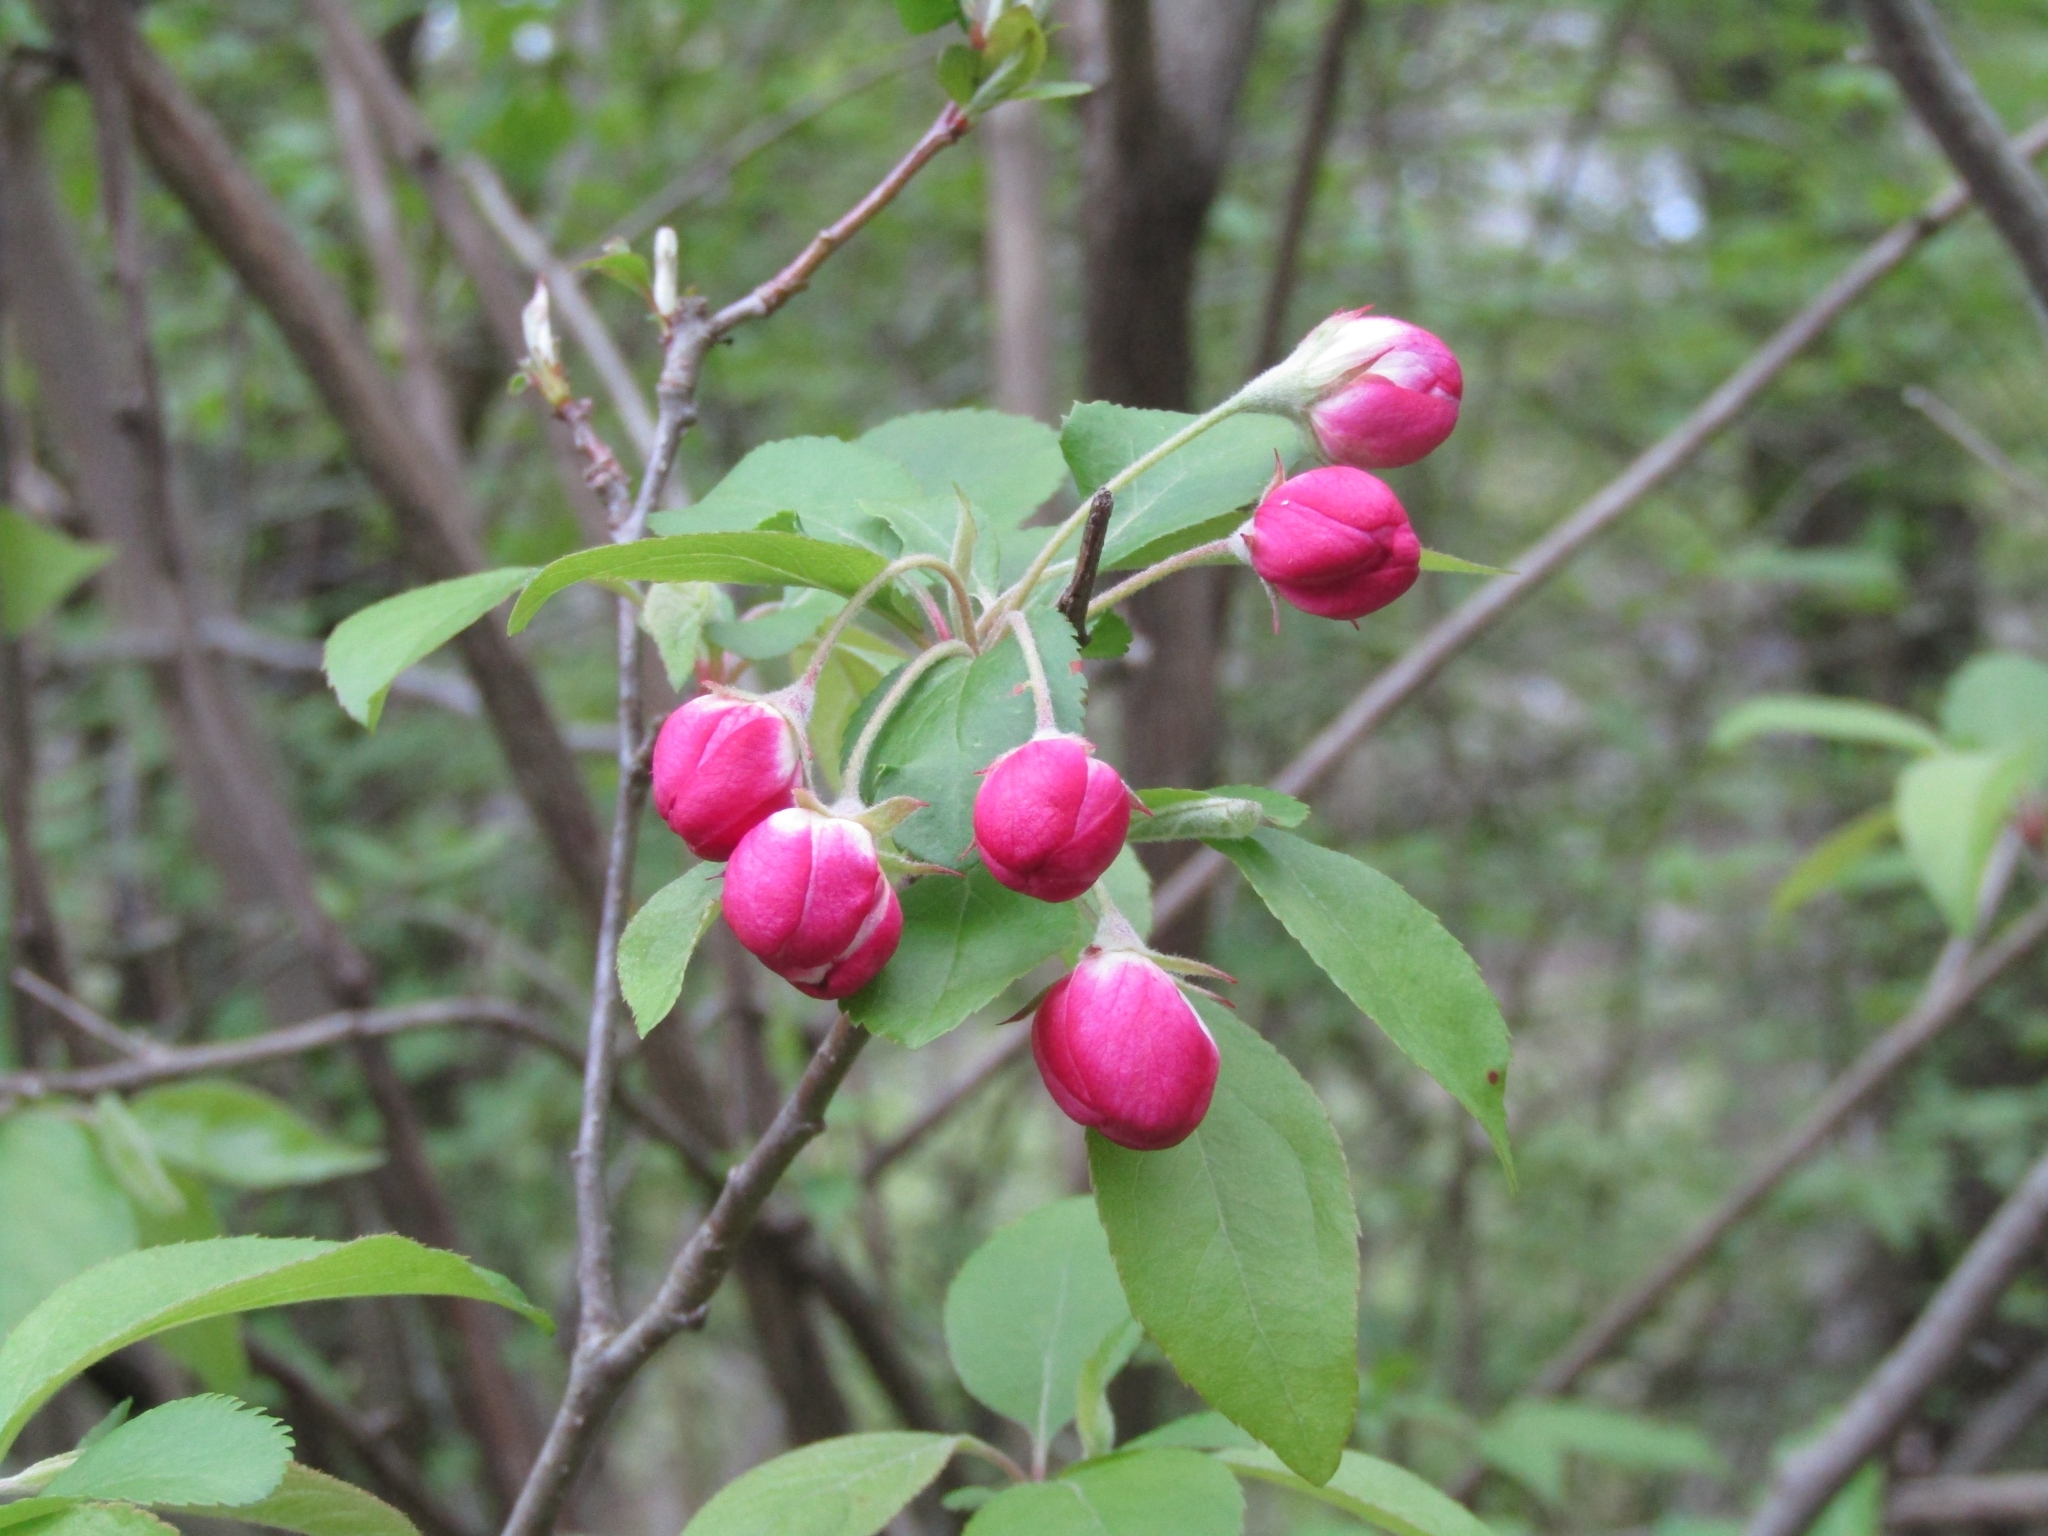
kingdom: Plantae
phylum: Tracheophyta
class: Magnoliopsida
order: Rosales
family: Rosaceae
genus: Malus
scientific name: Malus
